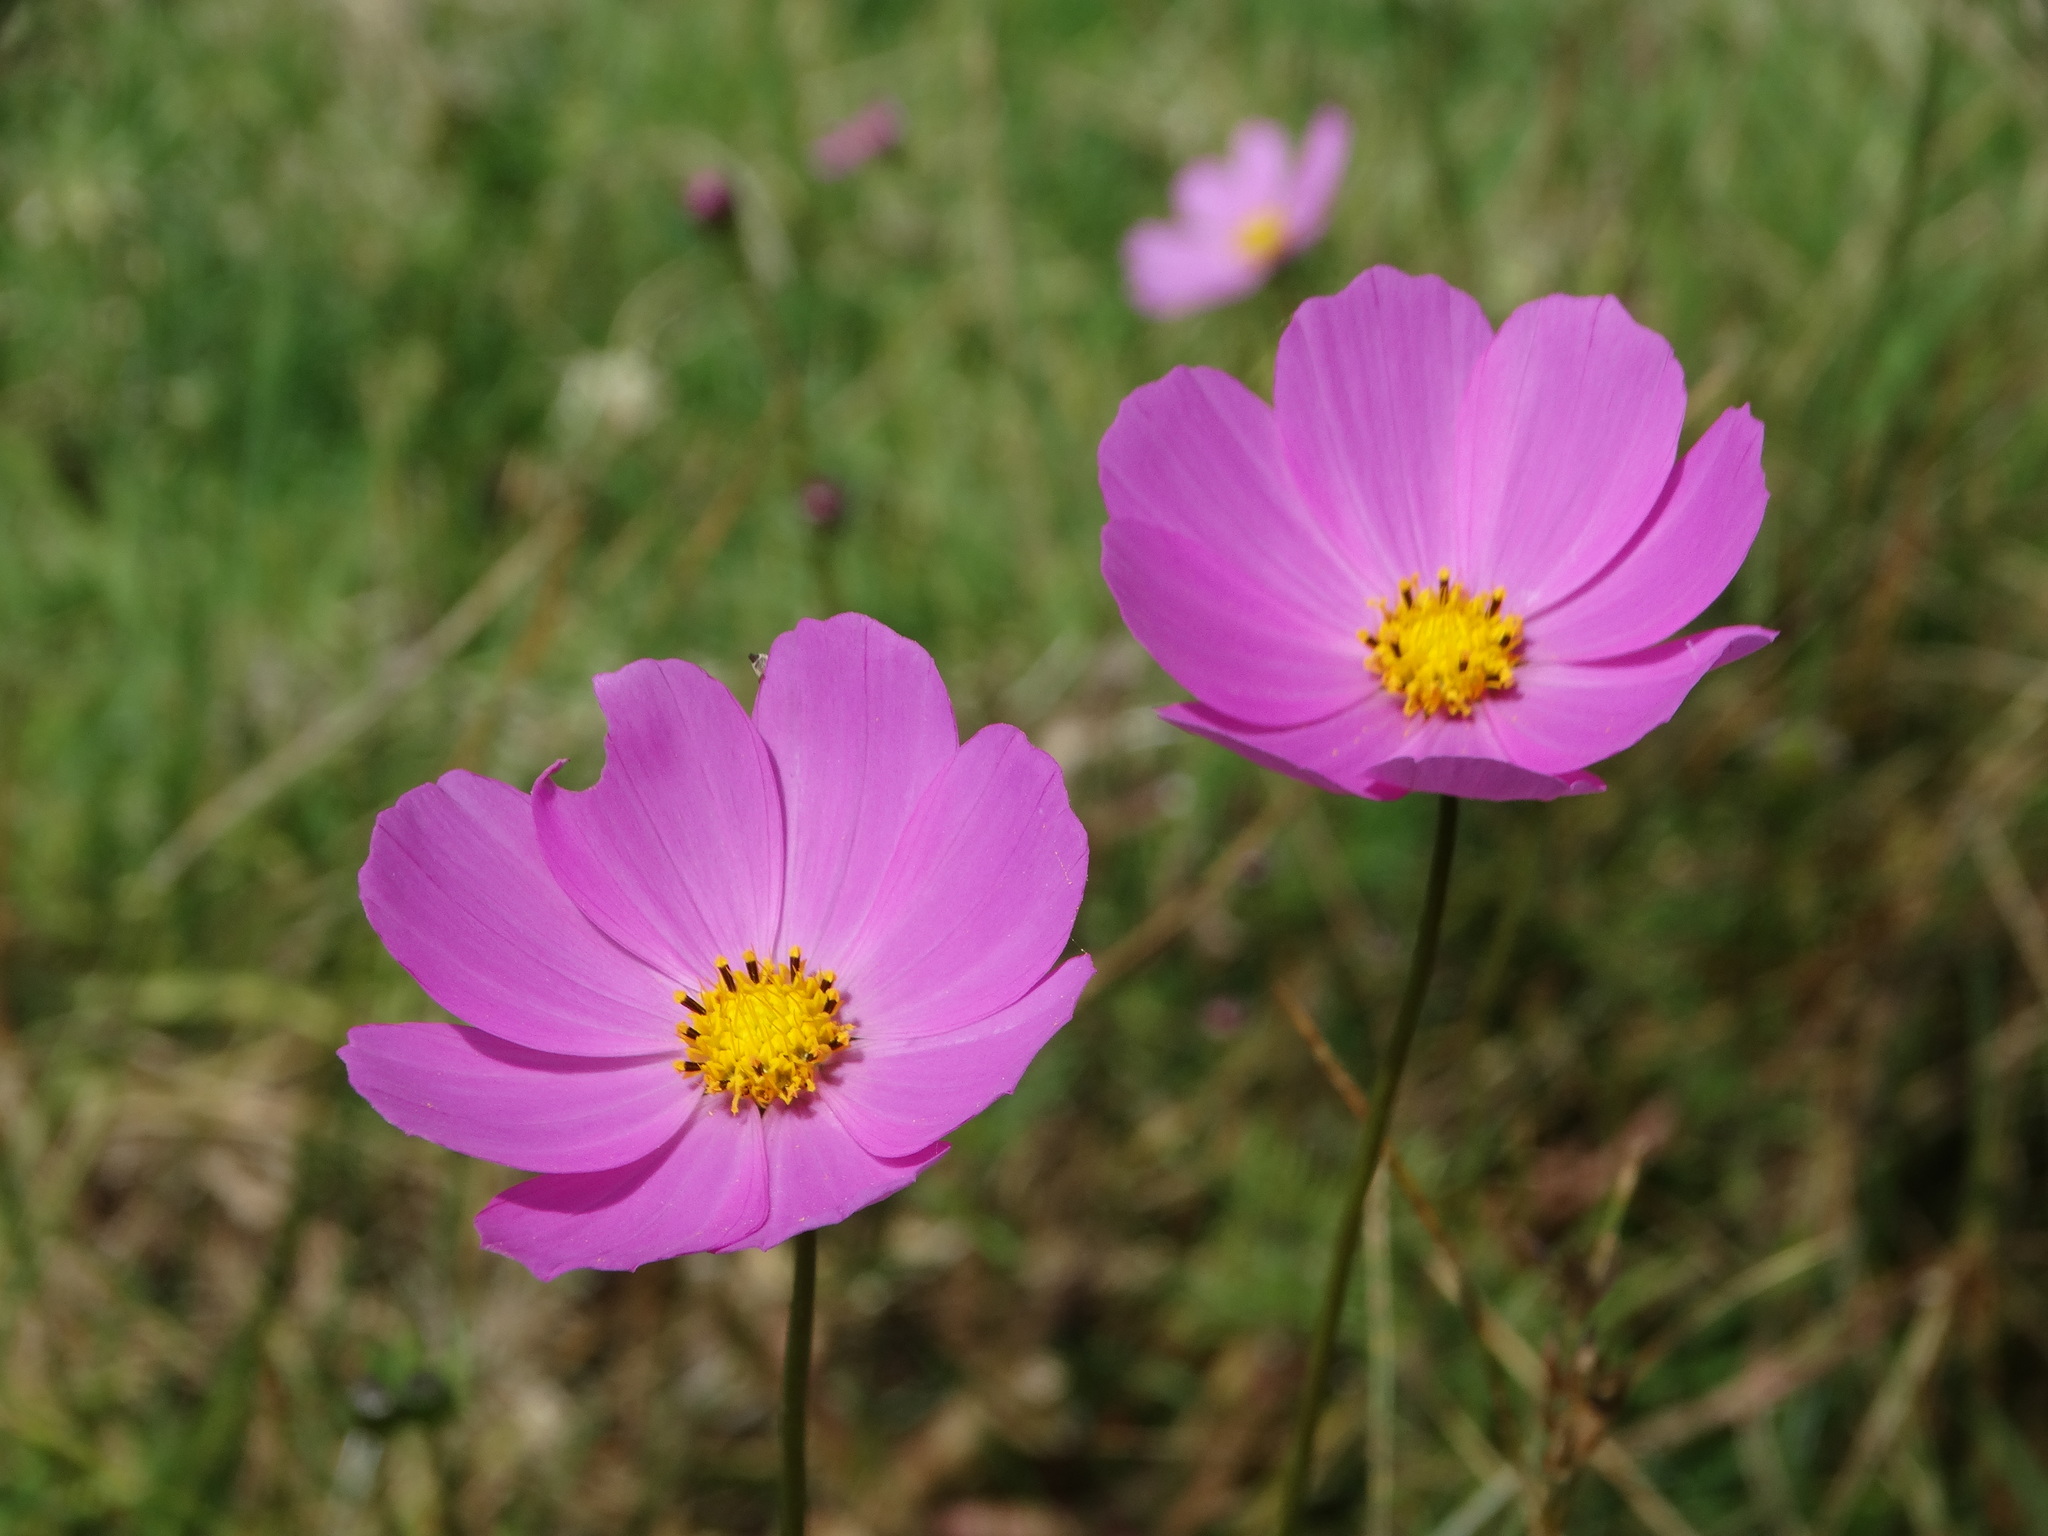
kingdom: Plantae
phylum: Tracheophyta
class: Magnoliopsida
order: Asterales
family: Asteraceae
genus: Cosmos
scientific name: Cosmos bipinnatus
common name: Garden cosmos
